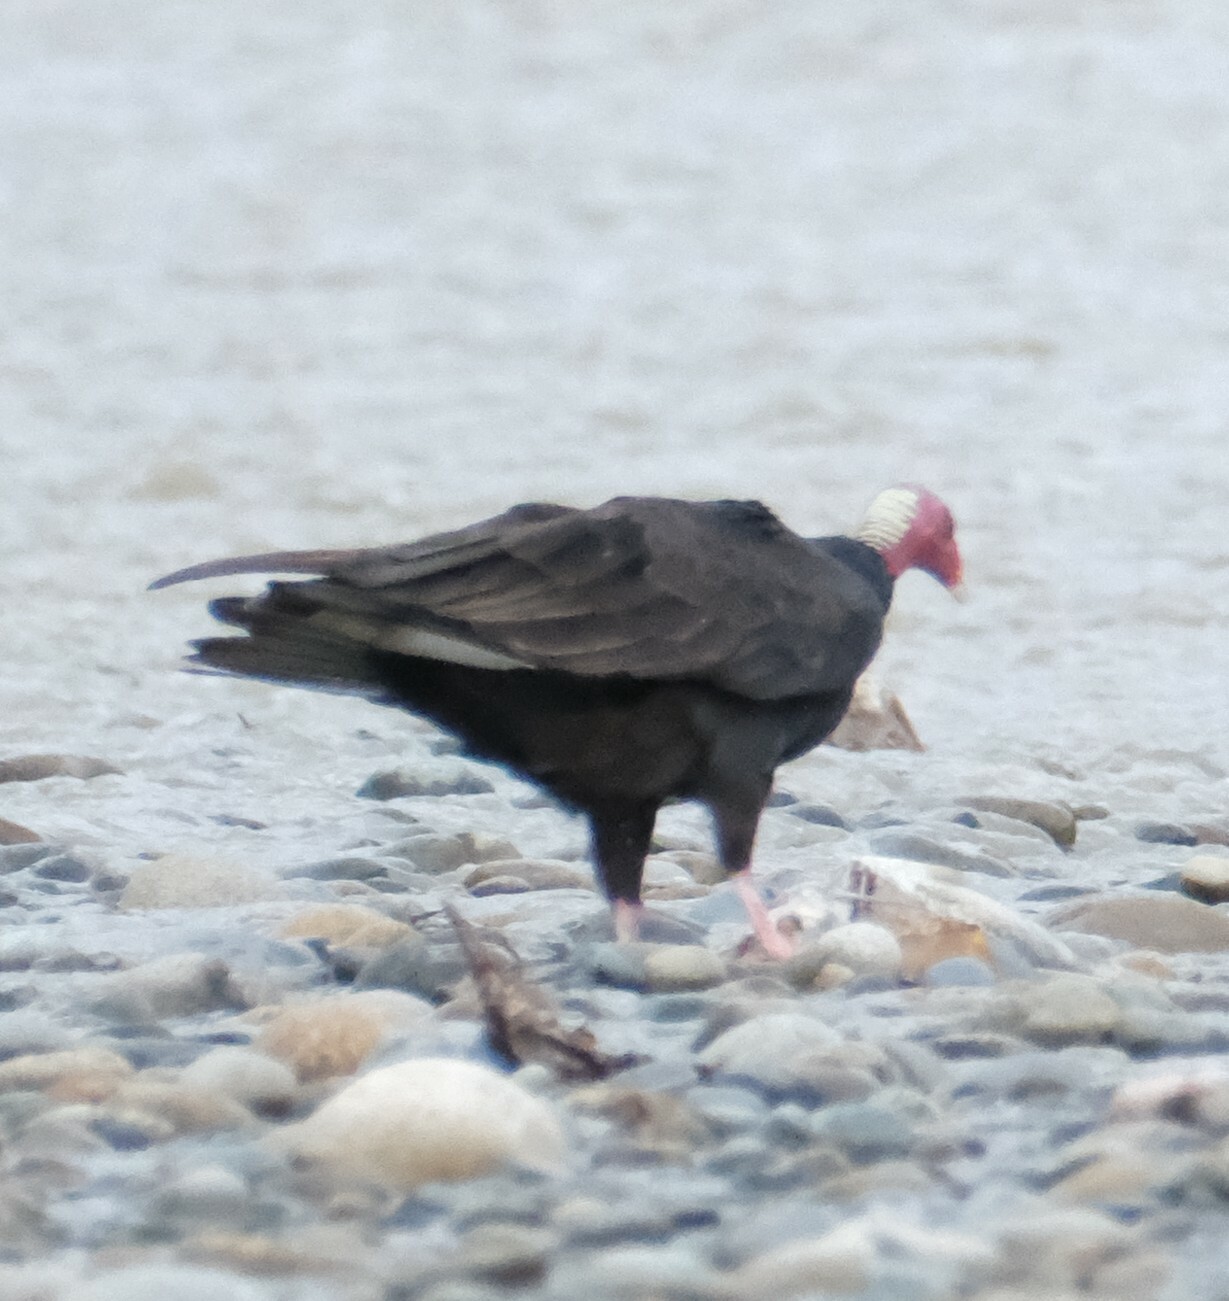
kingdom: Animalia
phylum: Chordata
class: Aves
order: Accipitriformes
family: Cathartidae
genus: Cathartes
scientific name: Cathartes aura
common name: Turkey vulture
